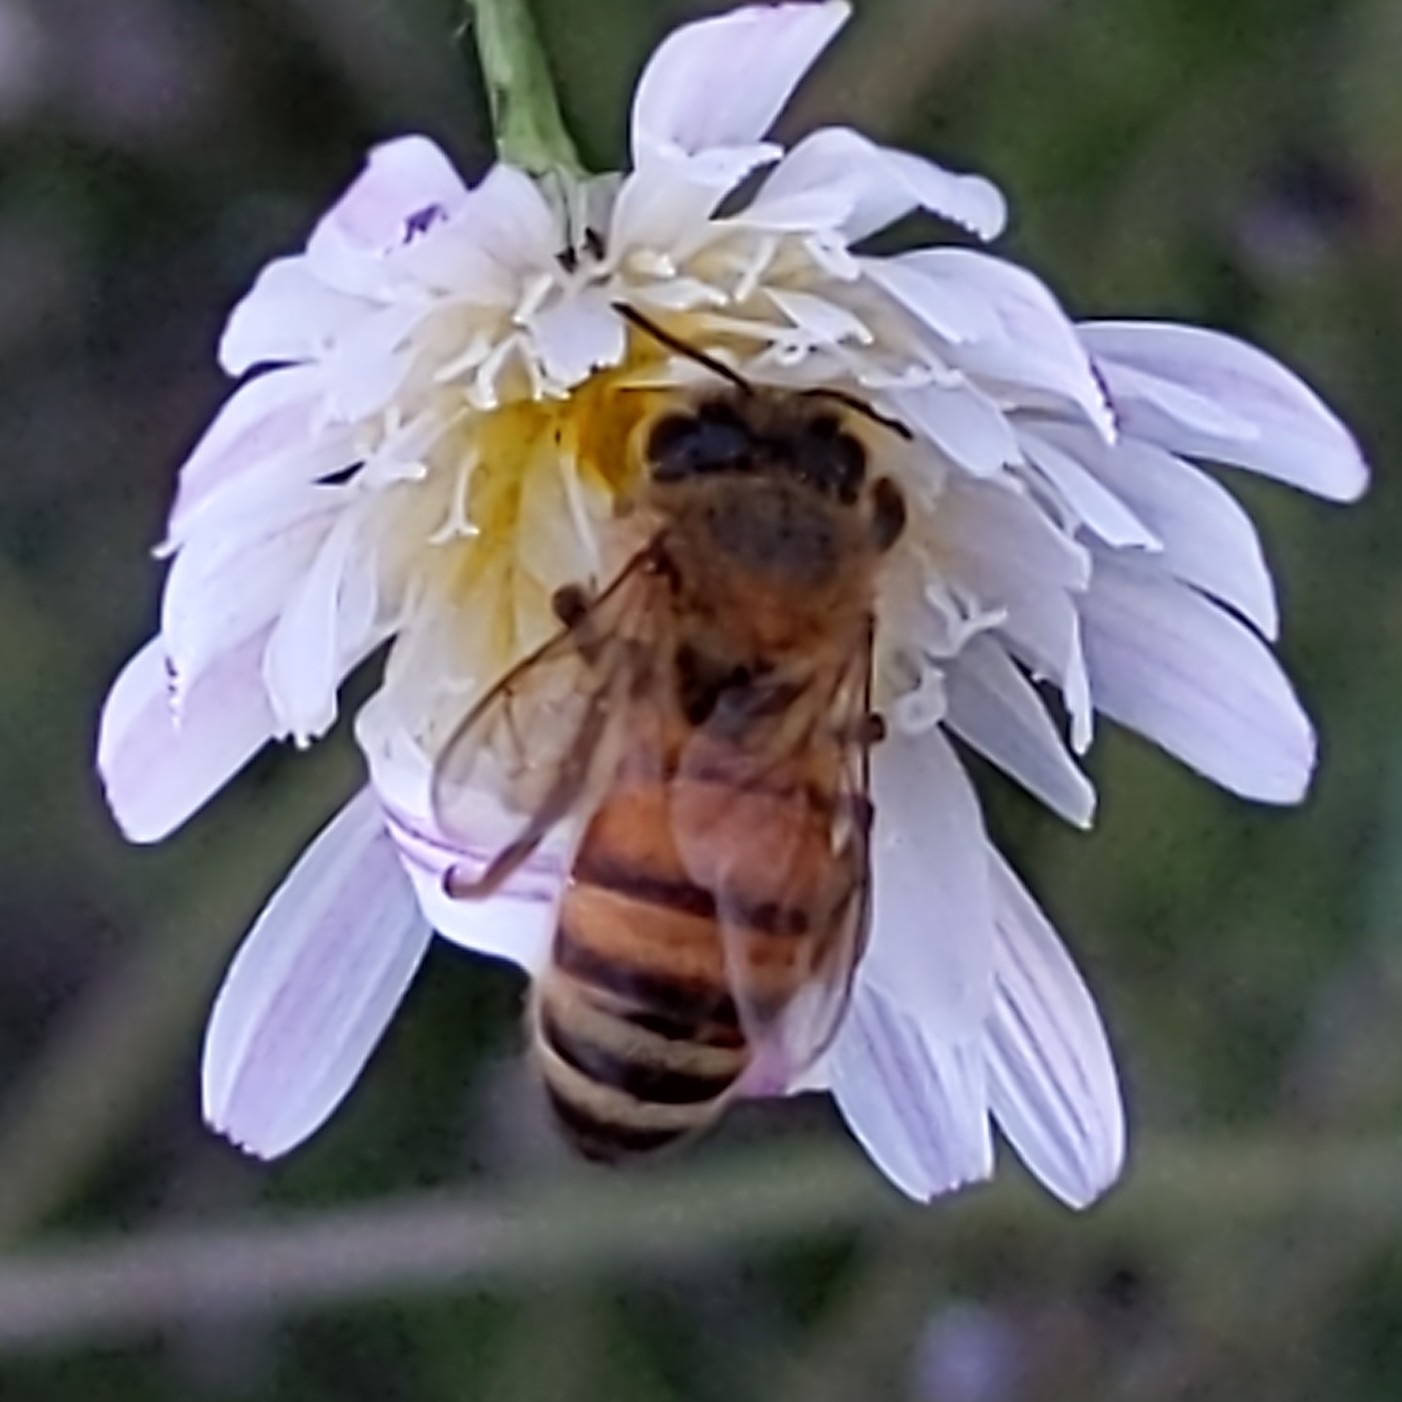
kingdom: Animalia
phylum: Arthropoda
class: Insecta
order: Hymenoptera
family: Apidae
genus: Apis
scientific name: Apis mellifera
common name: Honey bee
